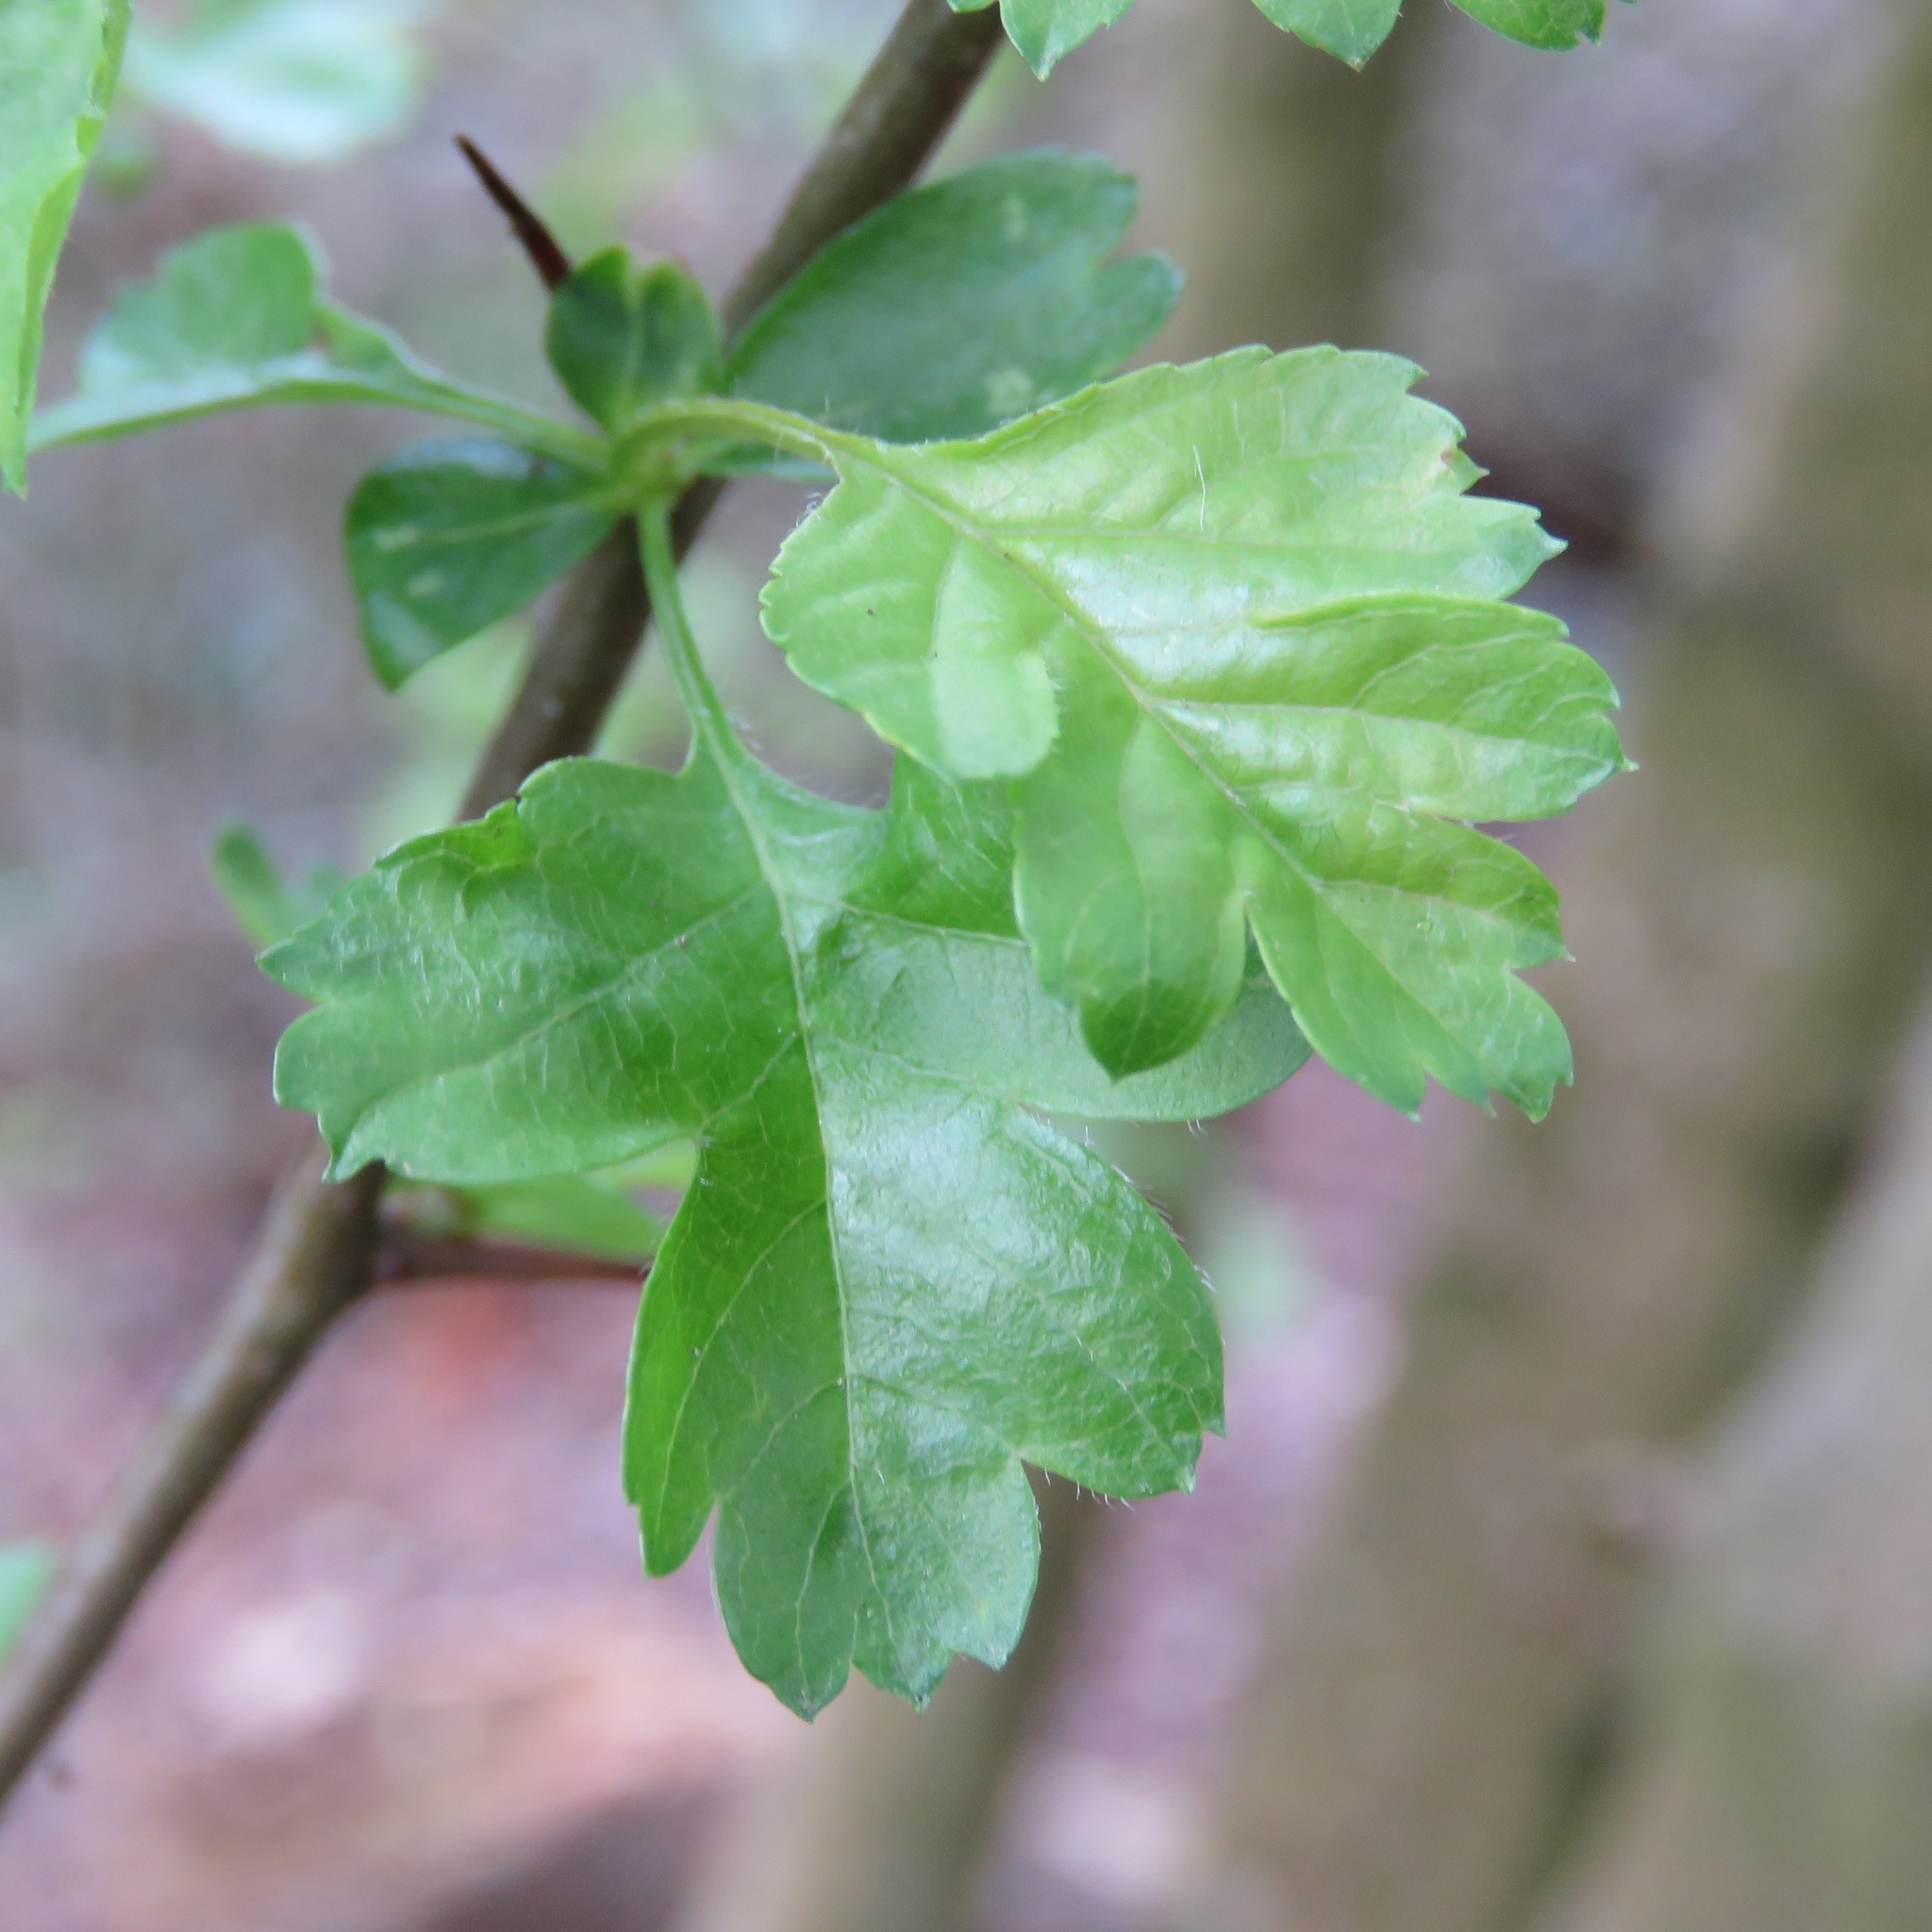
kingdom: Plantae
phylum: Tracheophyta
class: Magnoliopsida
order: Rosales
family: Rosaceae
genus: Crataegus
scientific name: Crataegus monogyna
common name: Hawthorn
